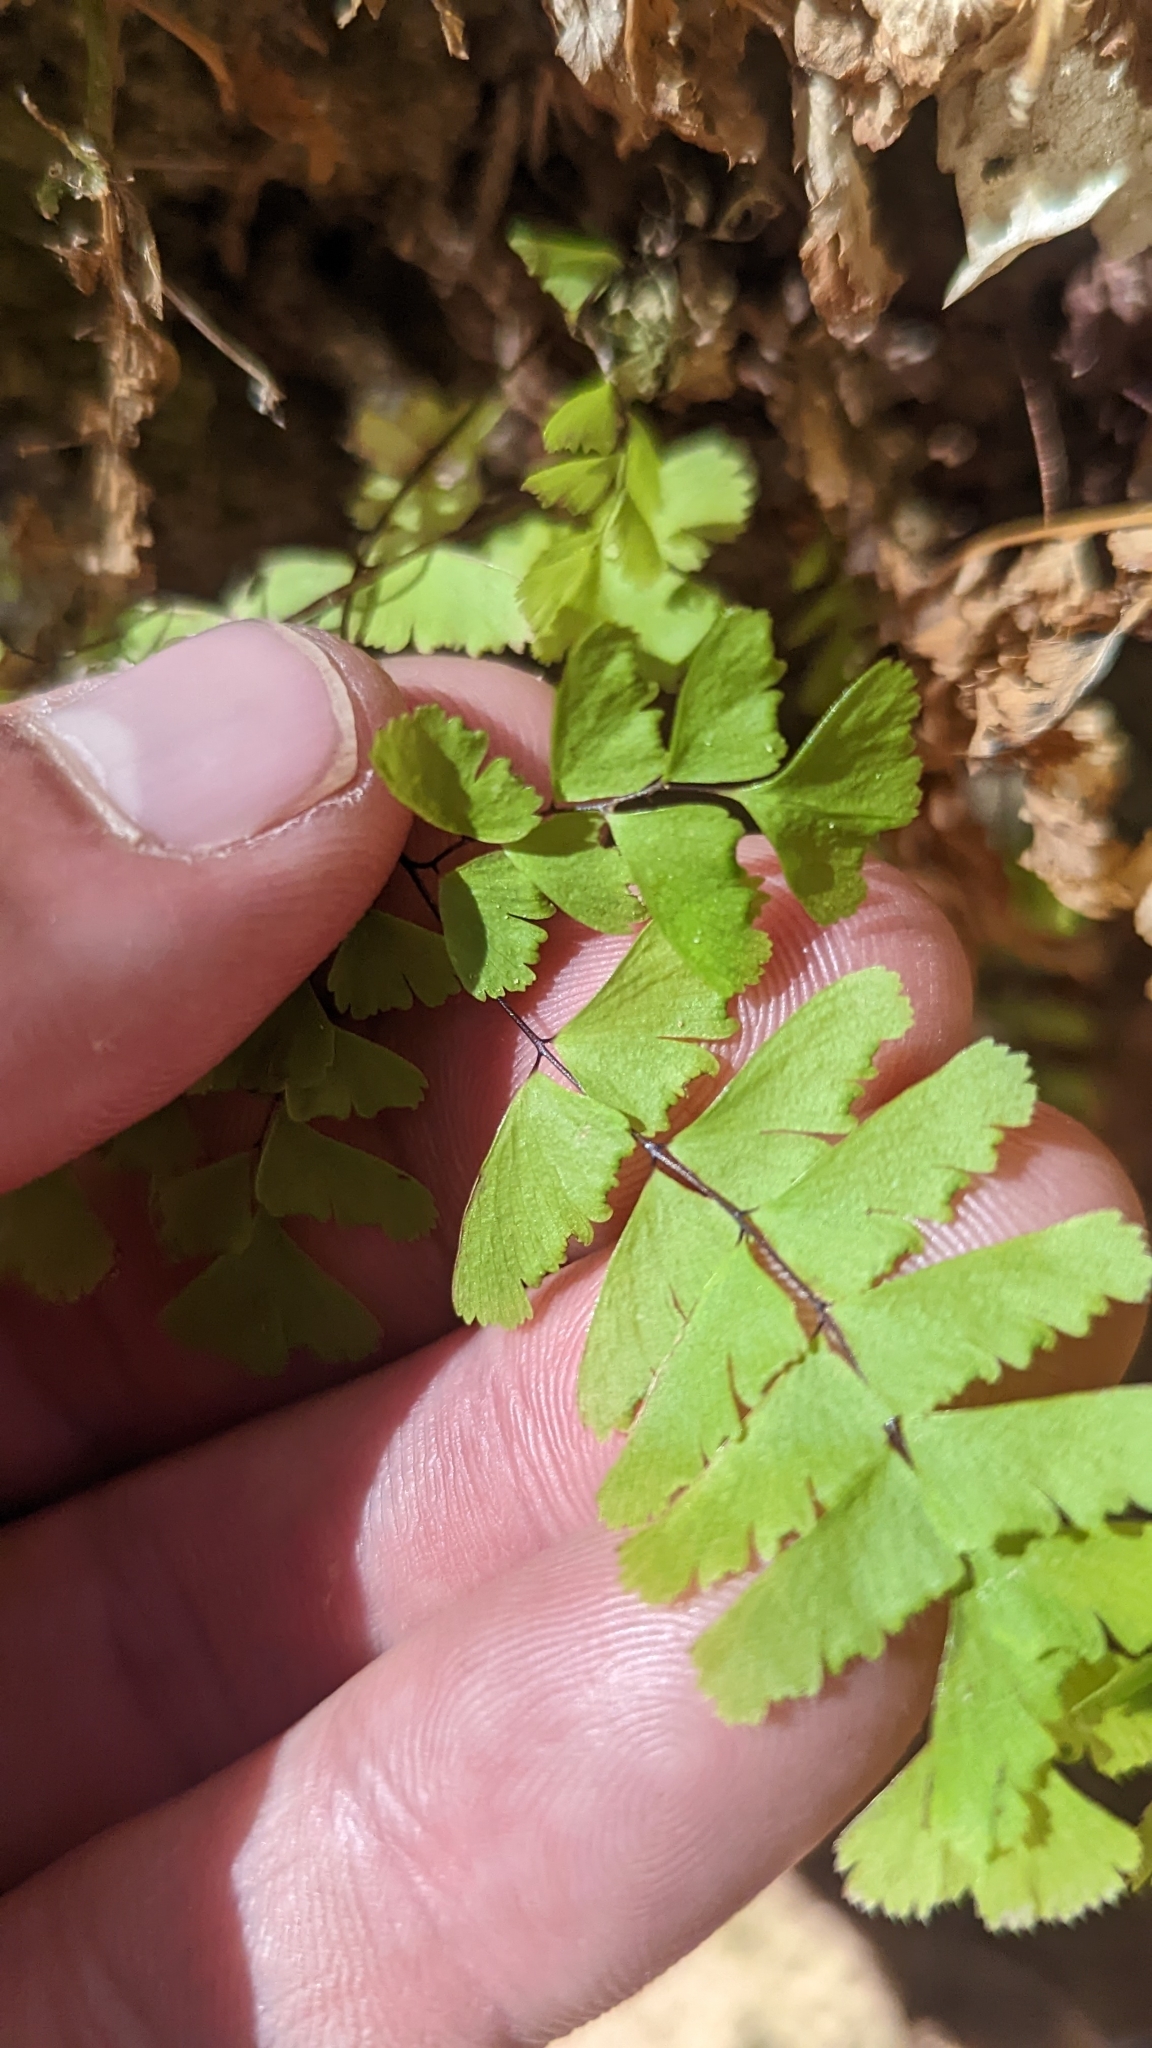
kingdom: Plantae
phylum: Tracheophyta
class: Polypodiopsida
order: Polypodiales
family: Pteridaceae
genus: Adiantum
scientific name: Adiantum aleuticum
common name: Aleutian maidenhair fern
